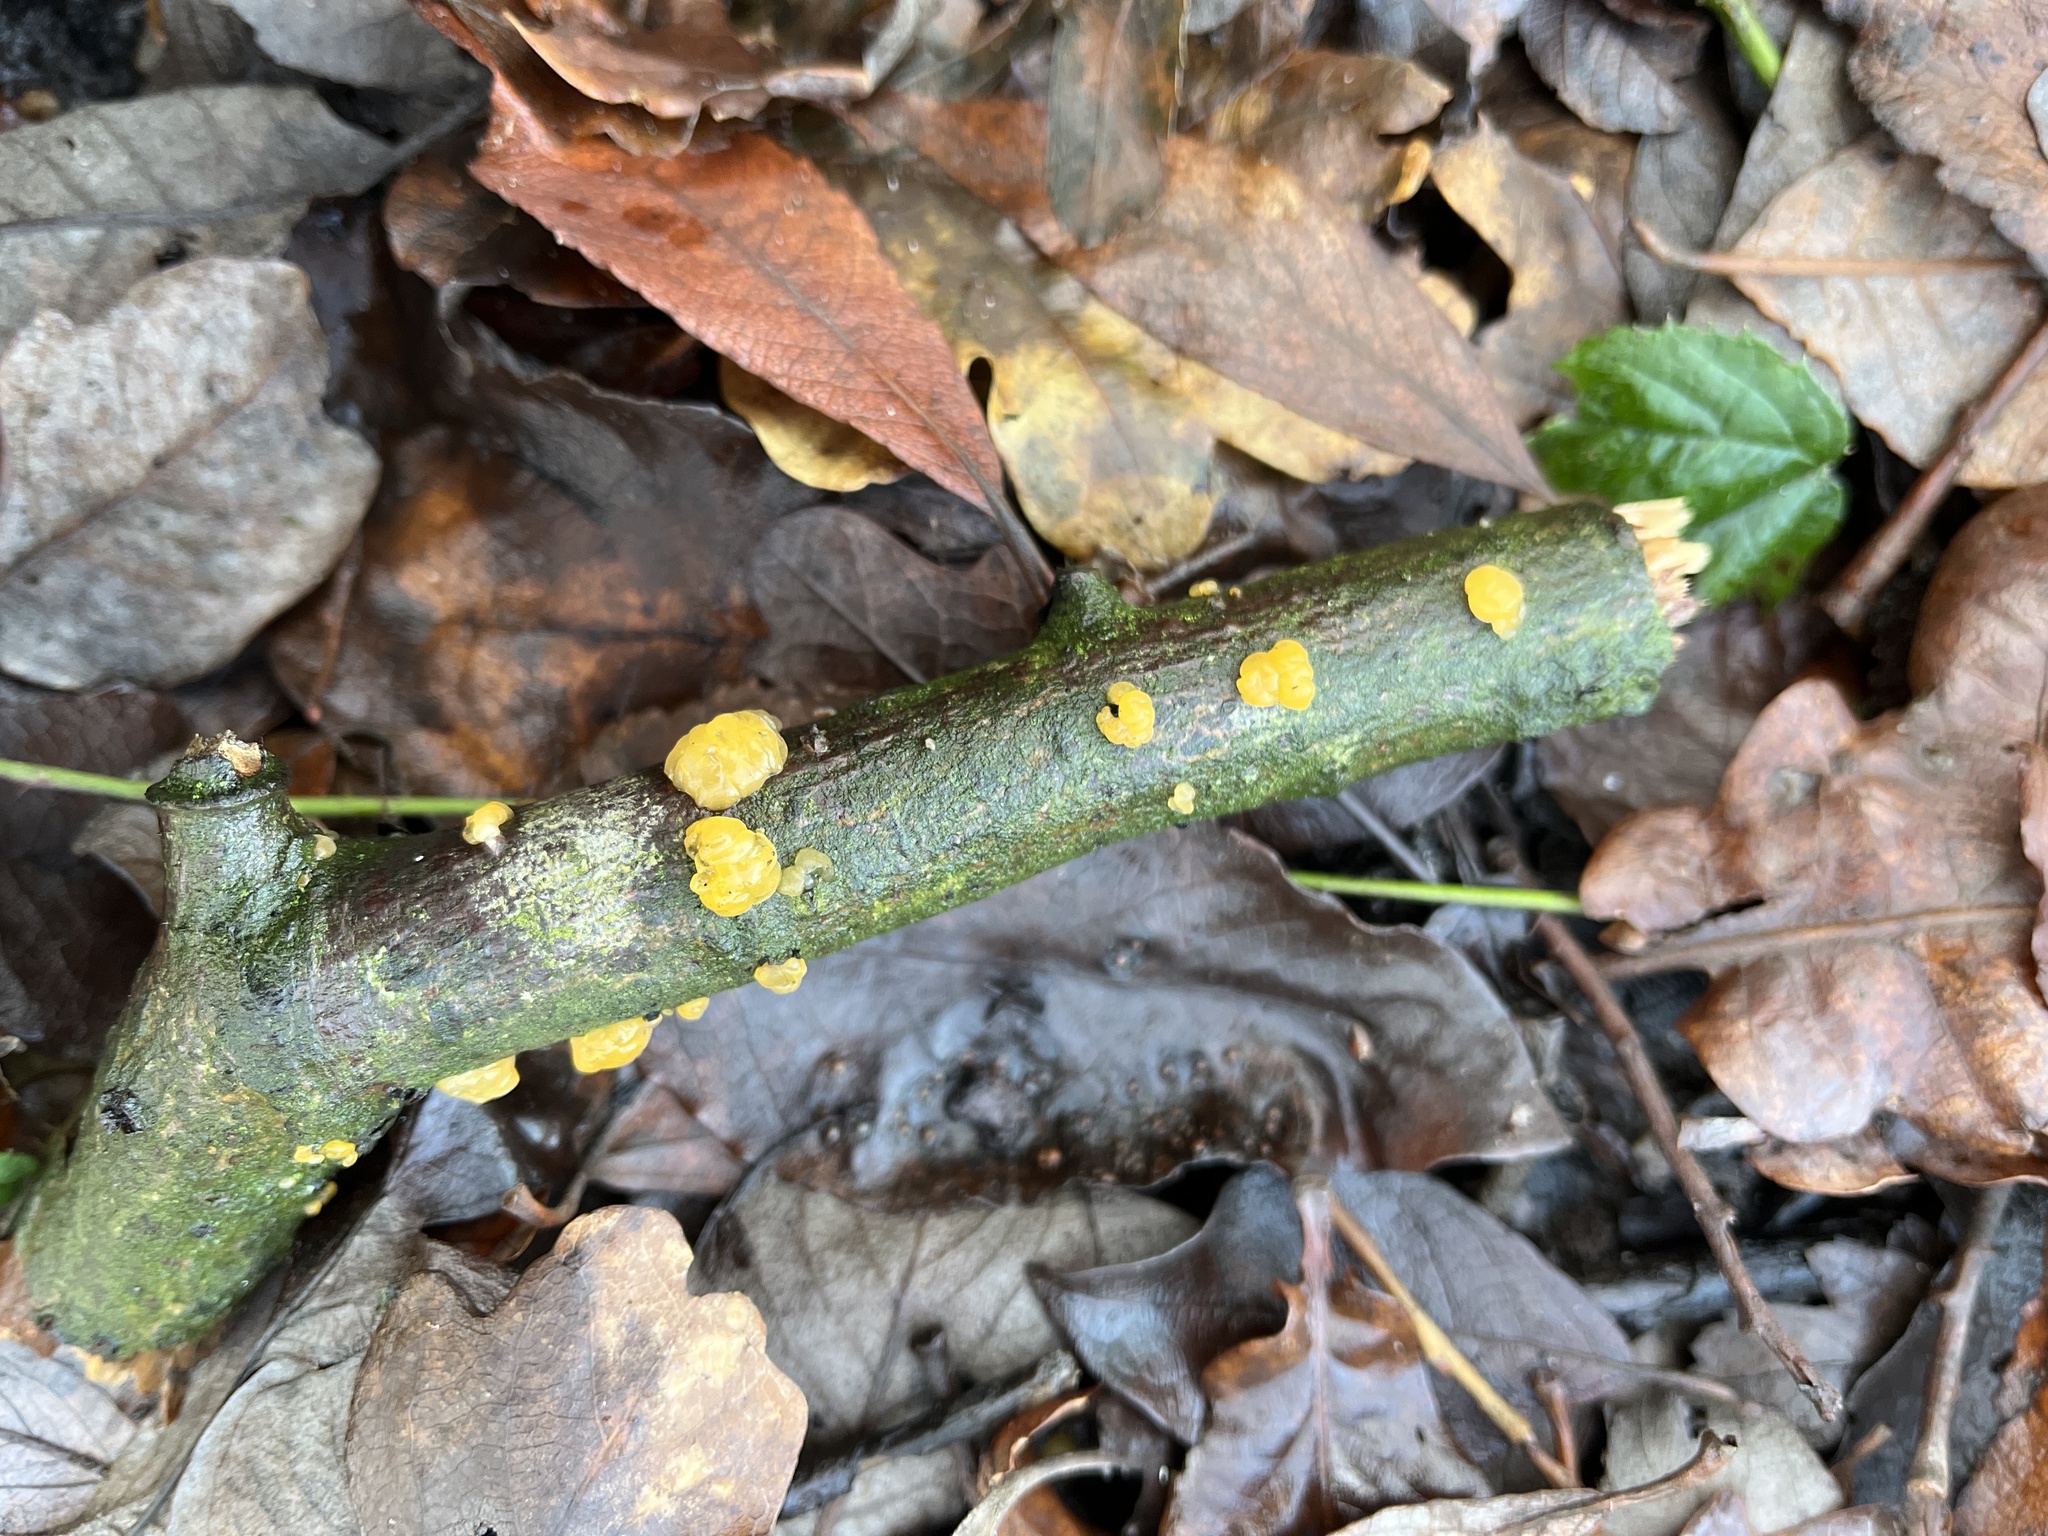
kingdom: Fungi
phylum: Basidiomycota
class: Tremellomycetes
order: Tremellales
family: Tremellaceae
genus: Tremella
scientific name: Tremella mesenterica
